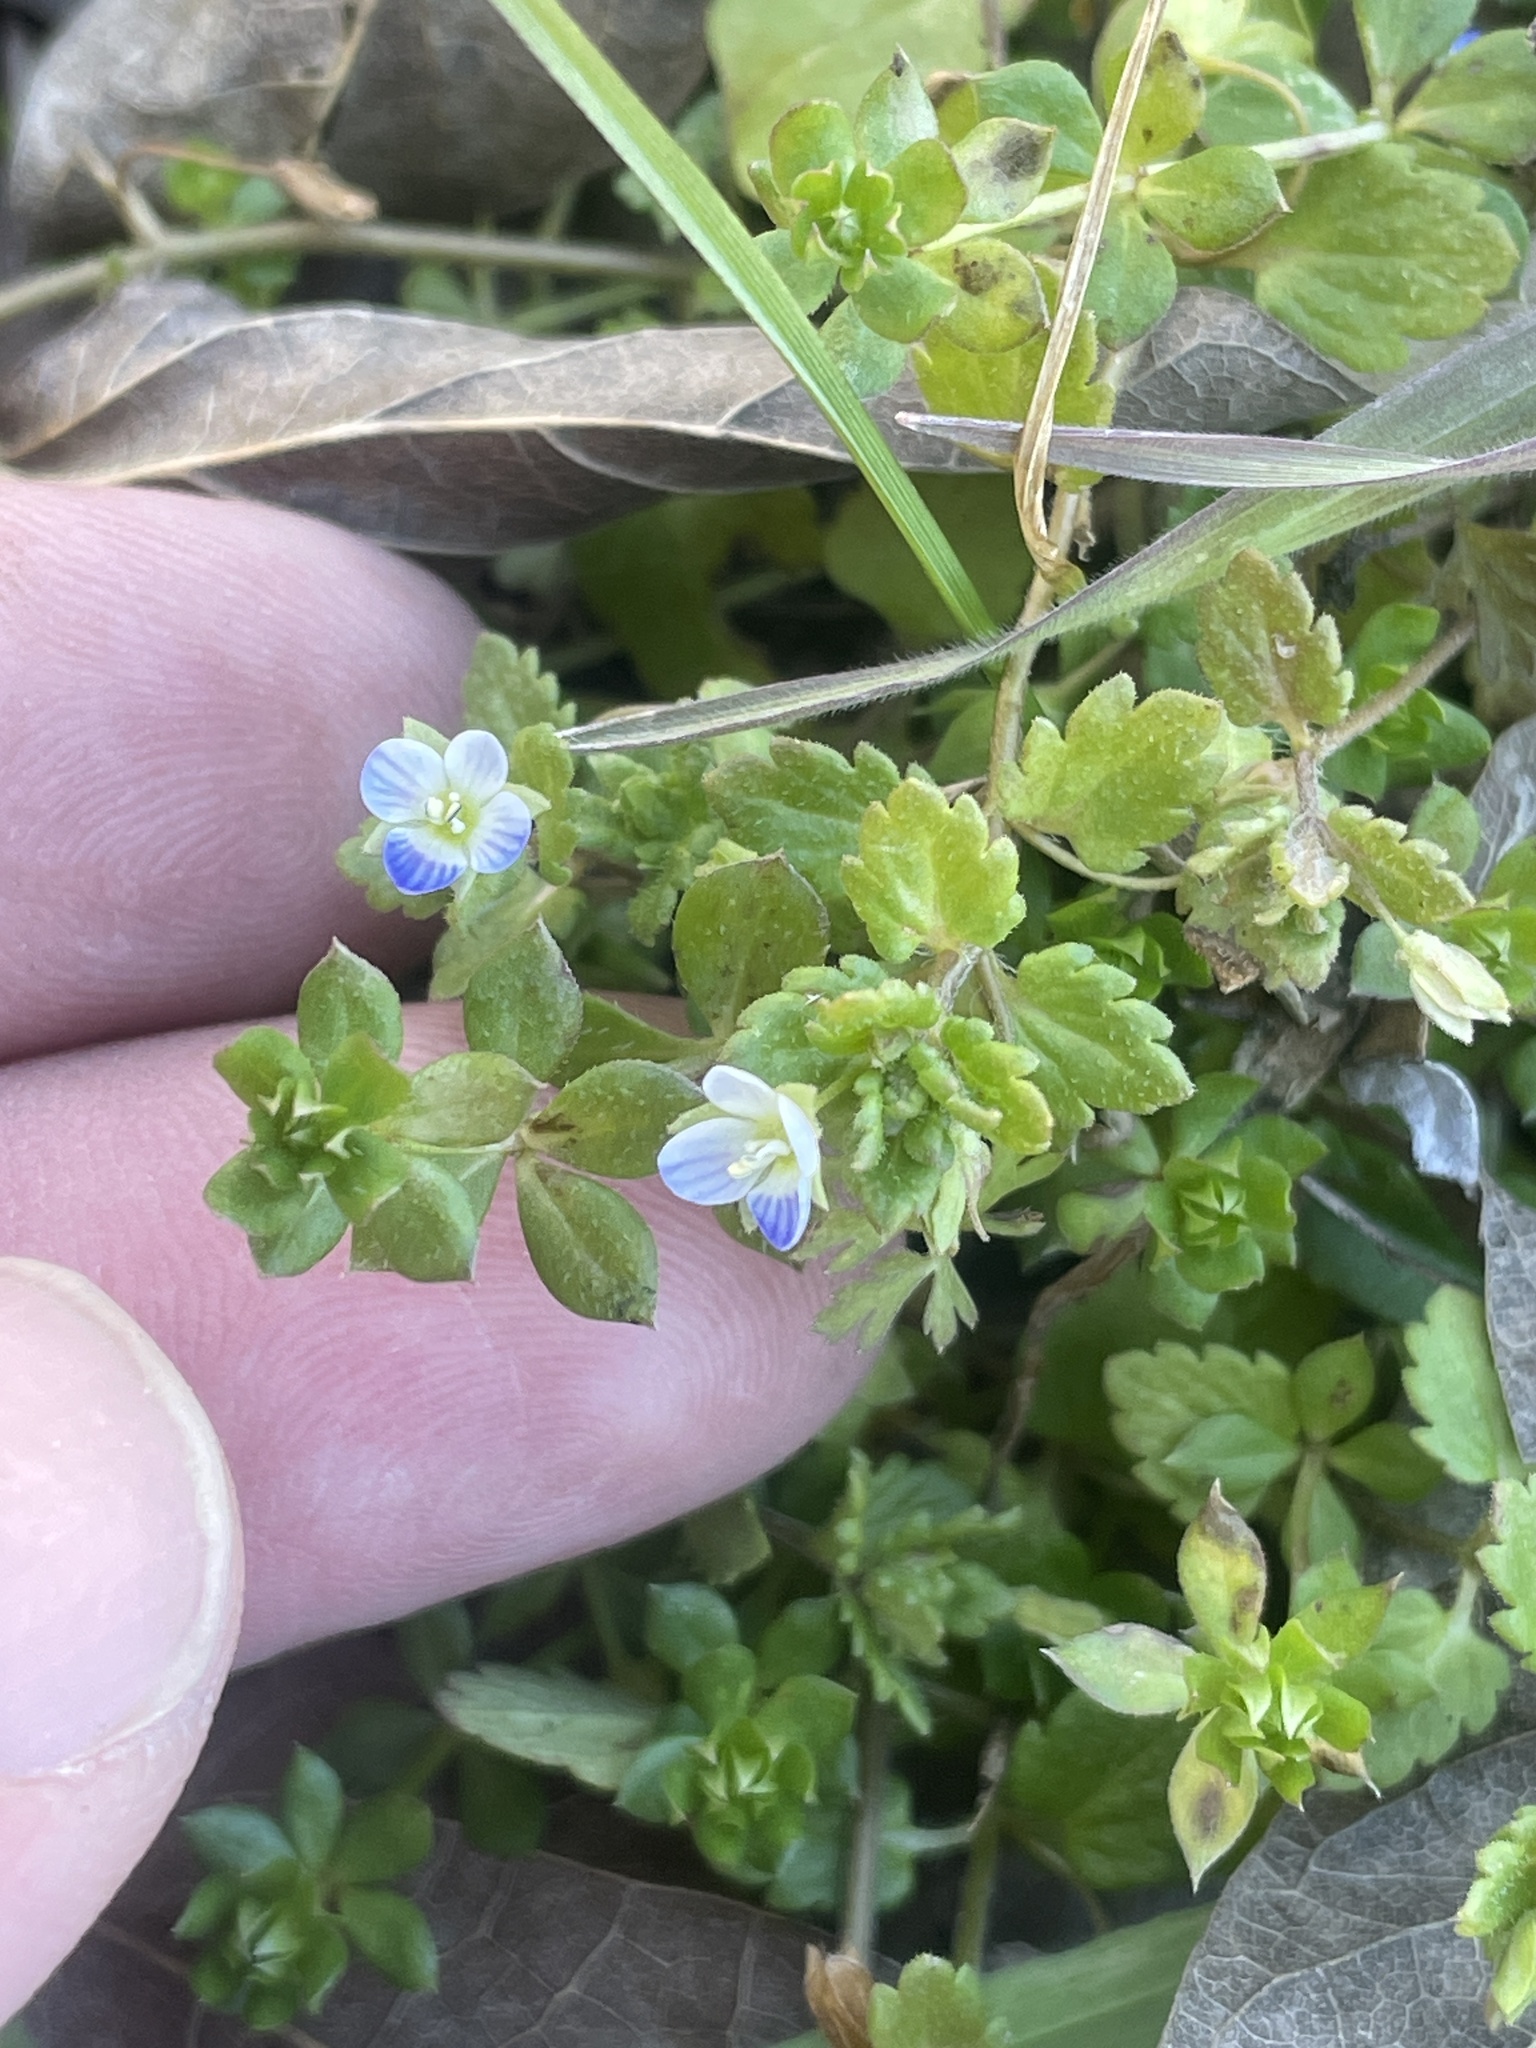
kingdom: Plantae
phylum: Tracheophyta
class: Magnoliopsida
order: Lamiales
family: Plantaginaceae
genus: Veronica
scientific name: Veronica polita
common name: Grey field-speedwell
